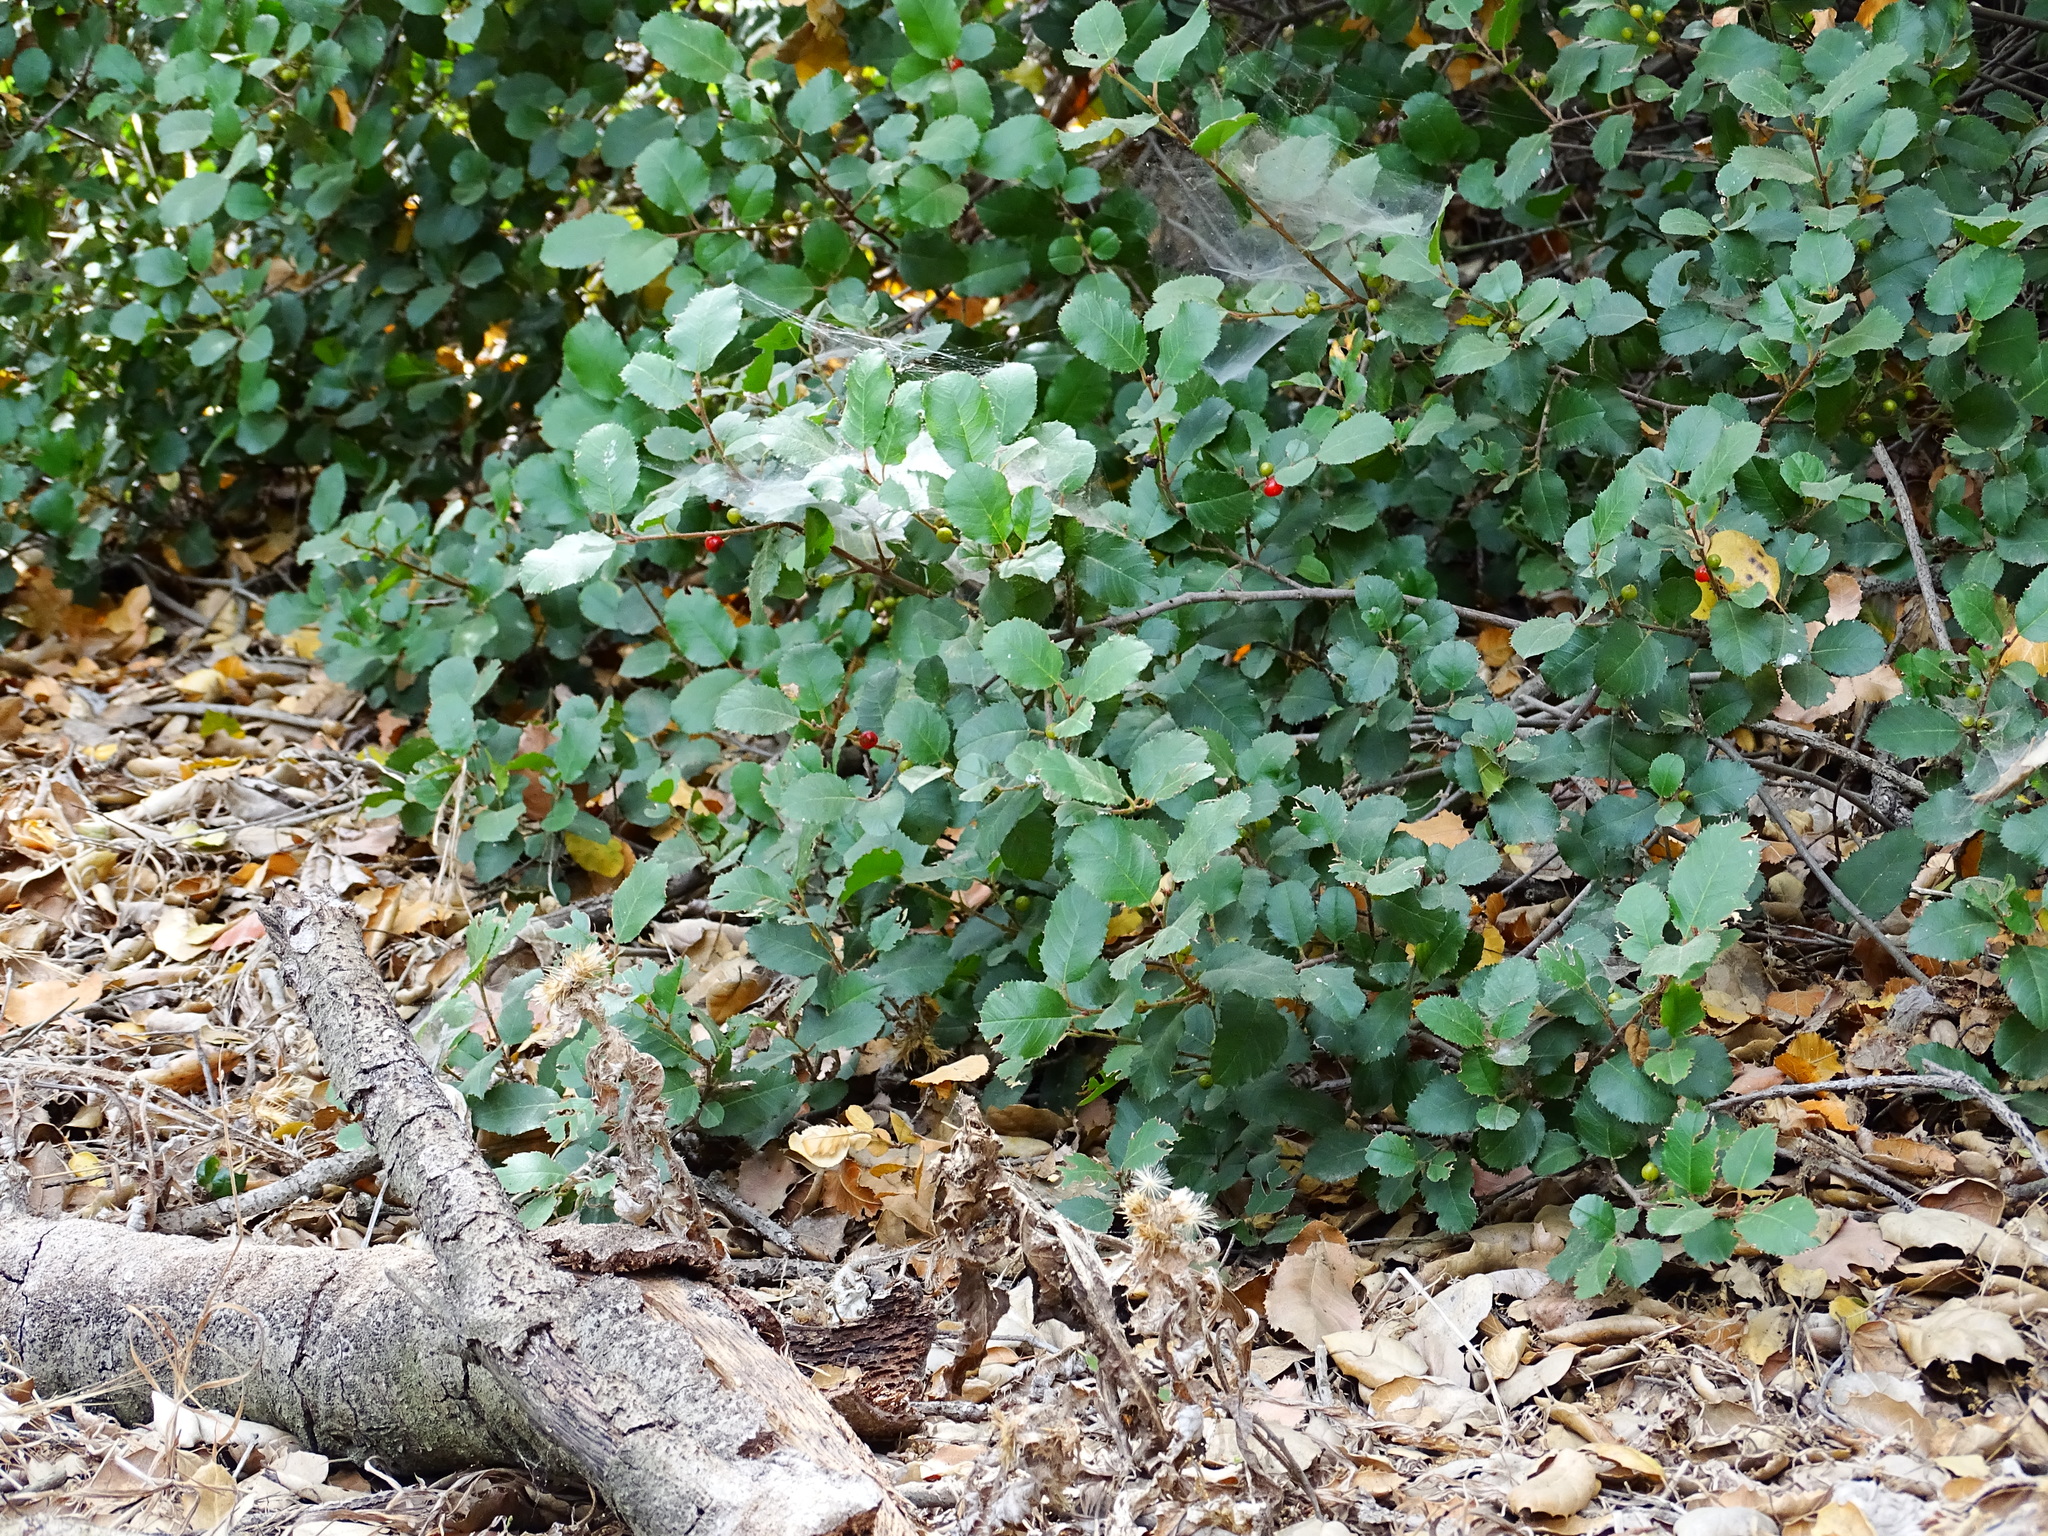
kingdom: Plantae
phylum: Tracheophyta
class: Magnoliopsida
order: Rosales
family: Rhamnaceae
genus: Endotropis
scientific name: Endotropis crocea
